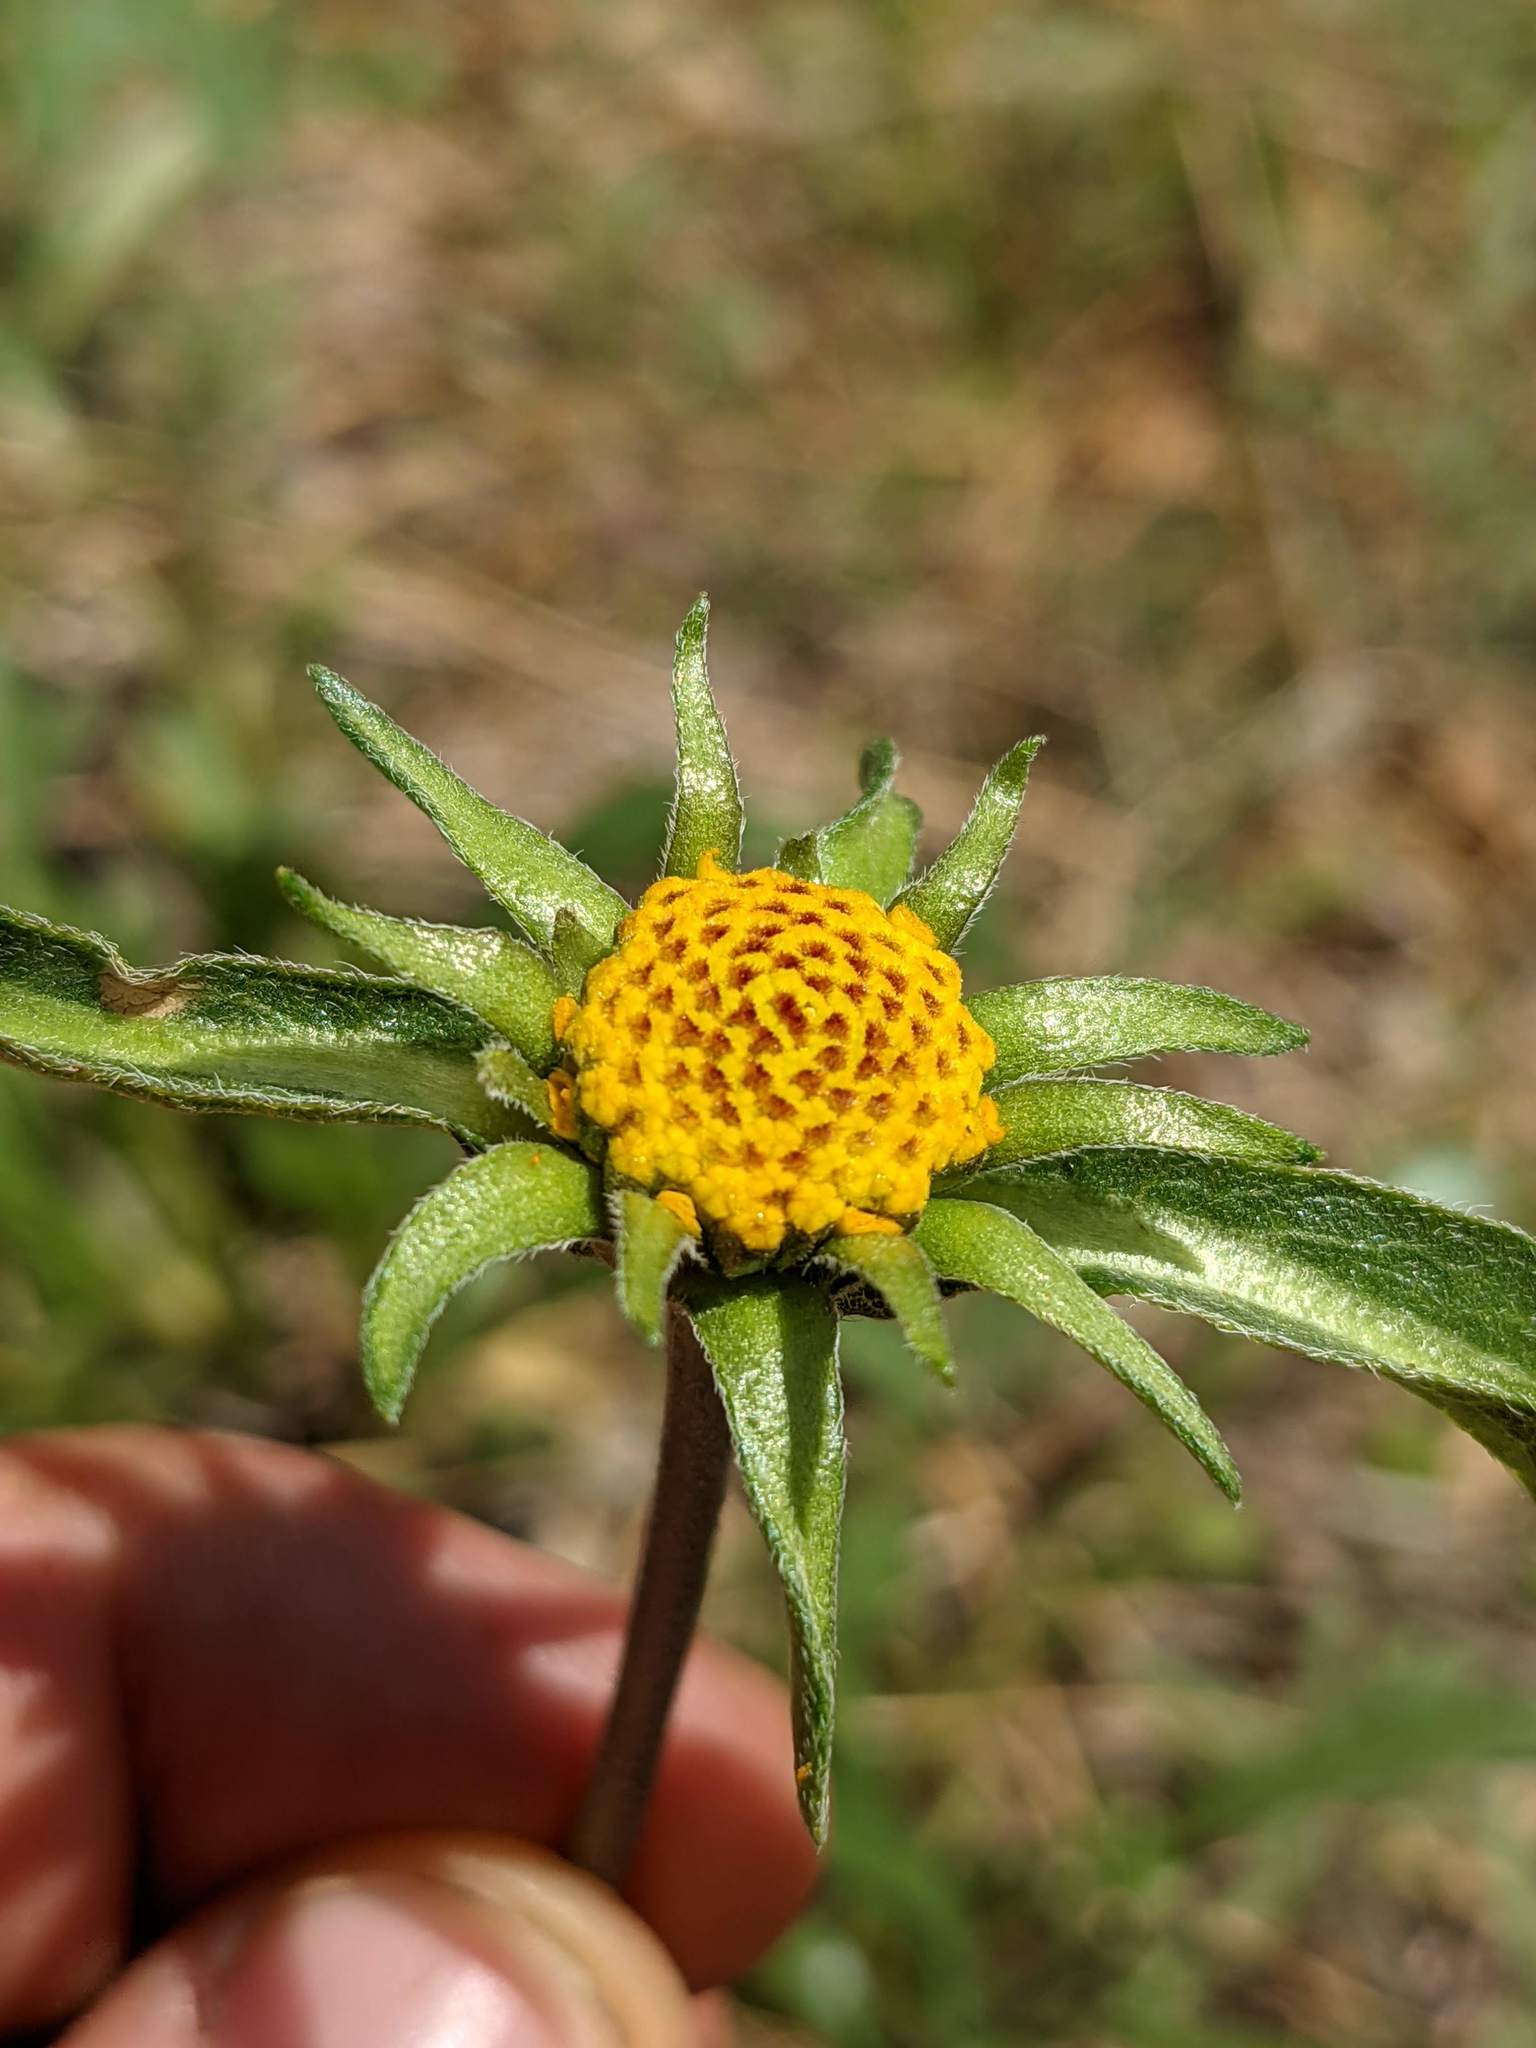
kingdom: Plantae
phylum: Tracheophyta
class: Magnoliopsida
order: Asterales
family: Asteraceae
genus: Helianthella
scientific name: Helianthella californica
